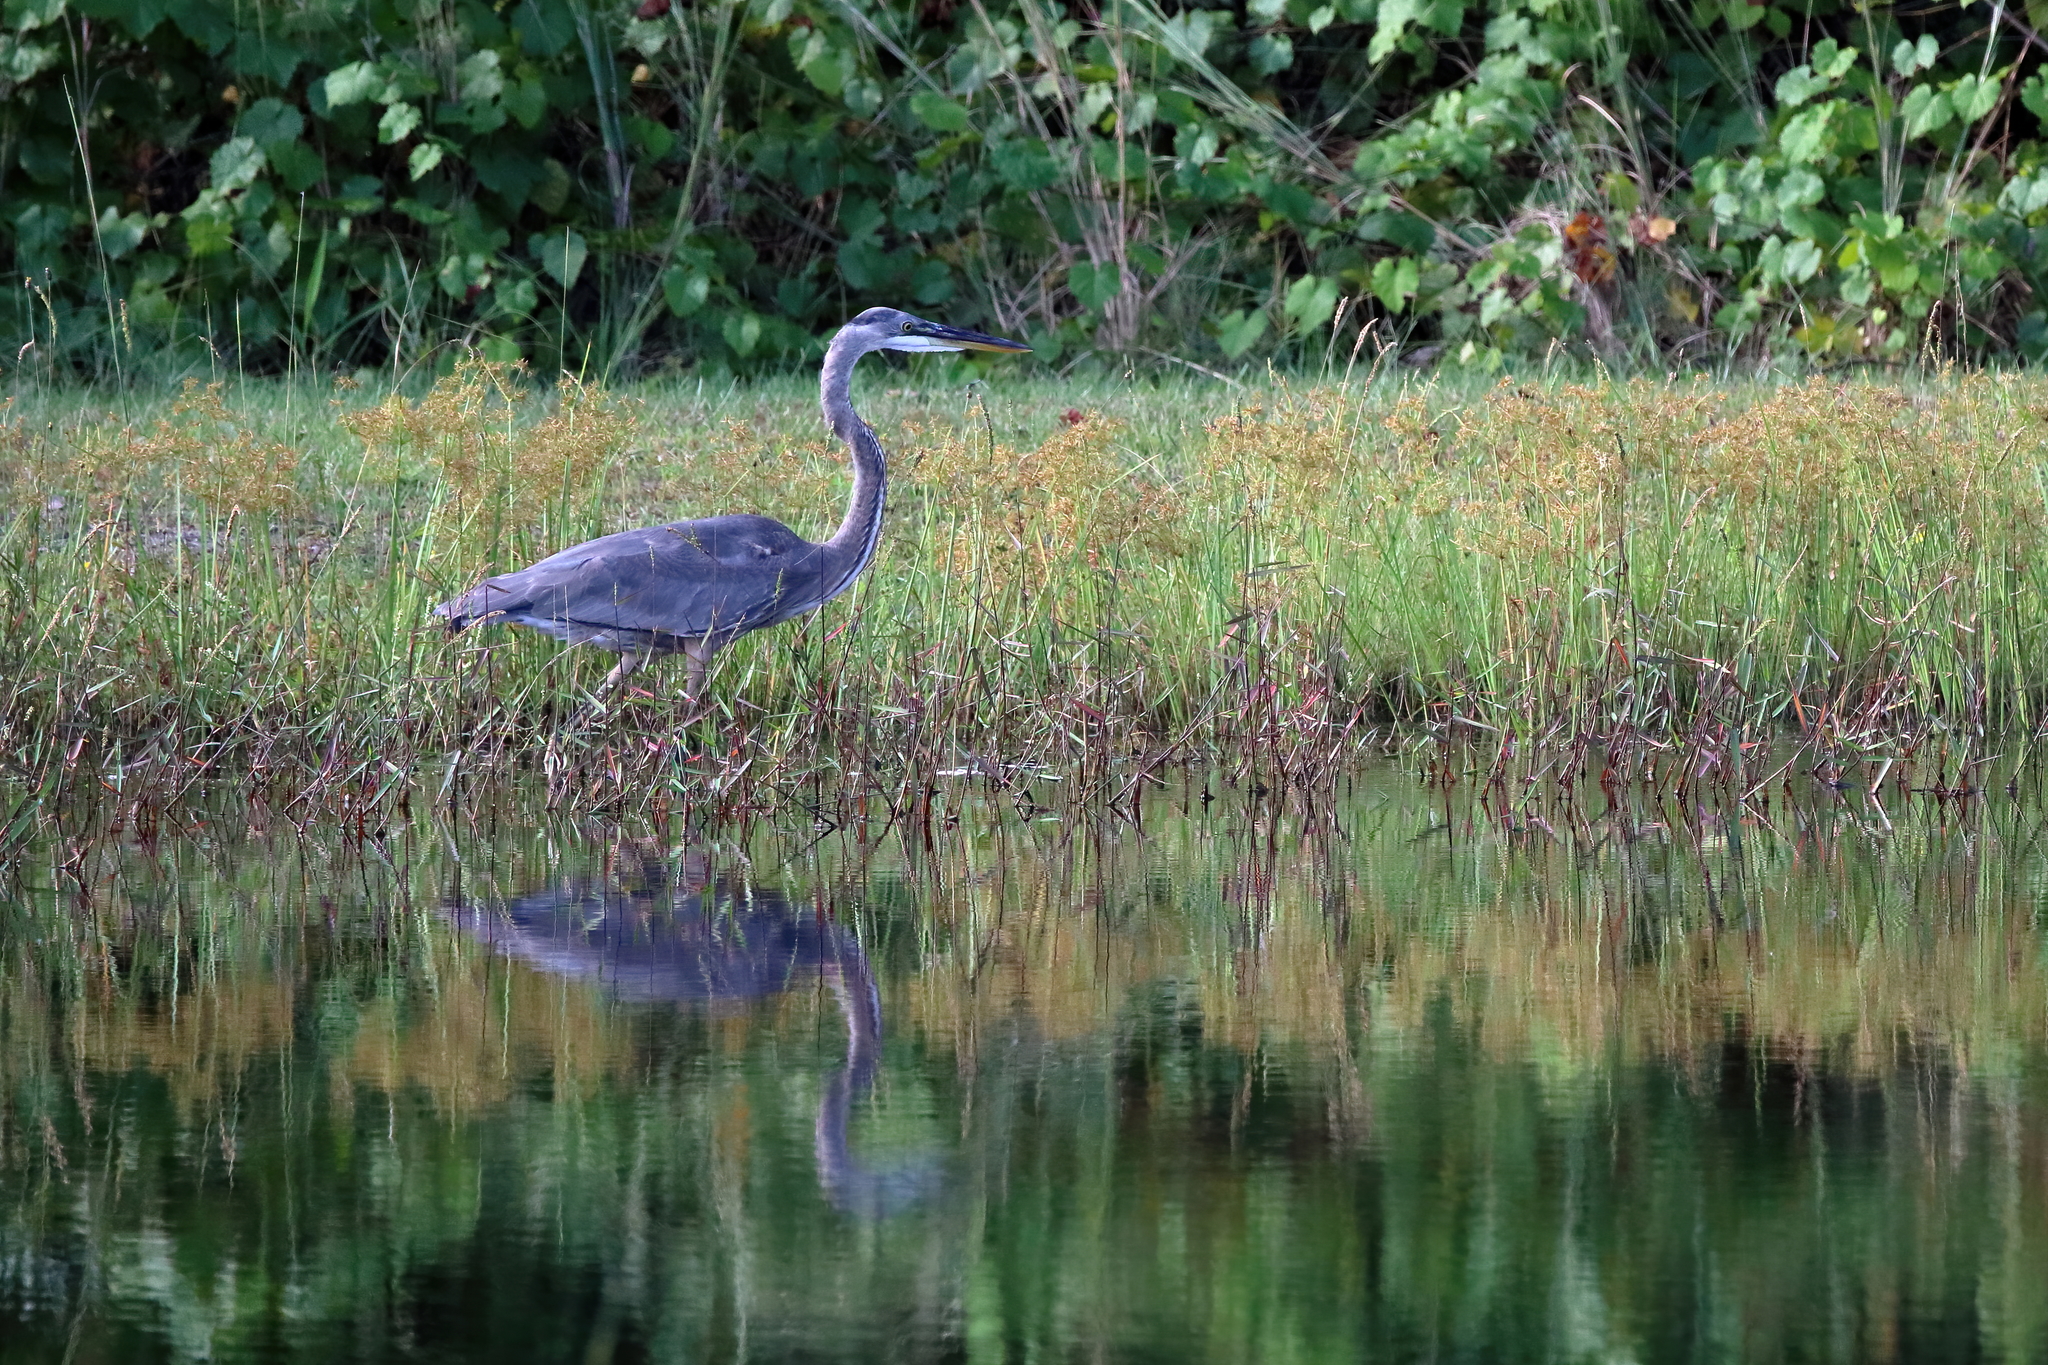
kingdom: Animalia
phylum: Chordata
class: Aves
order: Pelecaniformes
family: Ardeidae
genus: Ardea
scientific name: Ardea herodias
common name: Great blue heron
